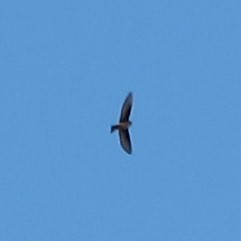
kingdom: Animalia
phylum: Chordata
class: Aves
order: Passeriformes
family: Hirundinidae
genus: Ptyonoprogne
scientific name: Ptyonoprogne rupestris
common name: Eurasian crag martin
